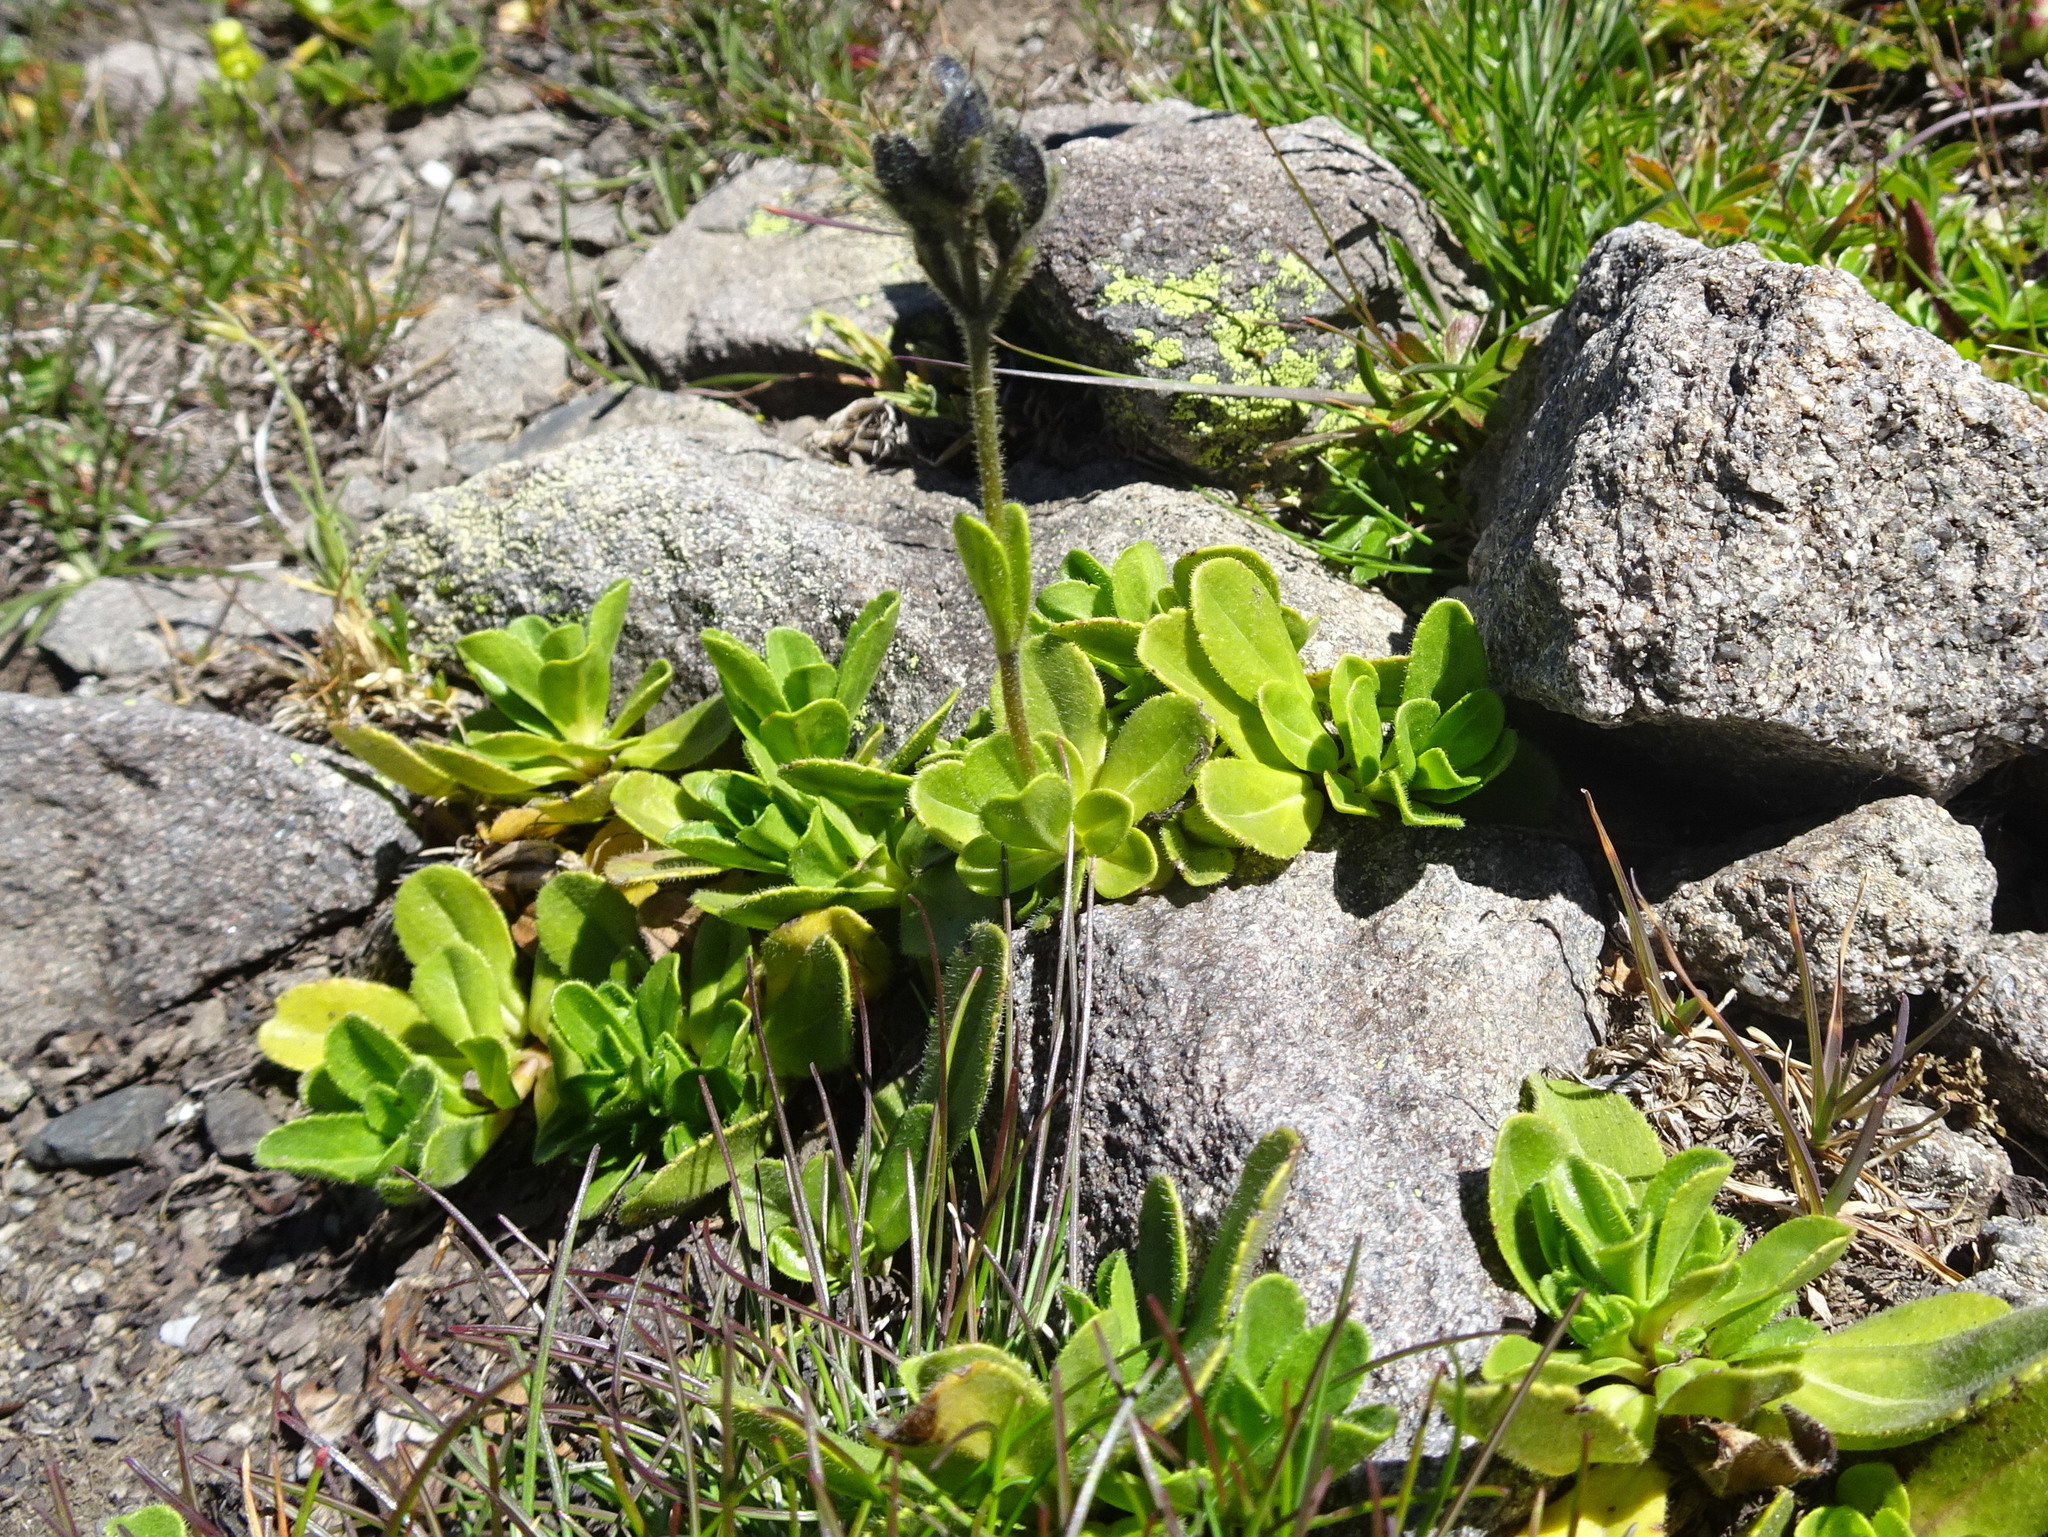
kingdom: Plantae
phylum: Tracheophyta
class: Magnoliopsida
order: Lamiales
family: Plantaginaceae
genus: Veronica
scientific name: Veronica bellidioides
